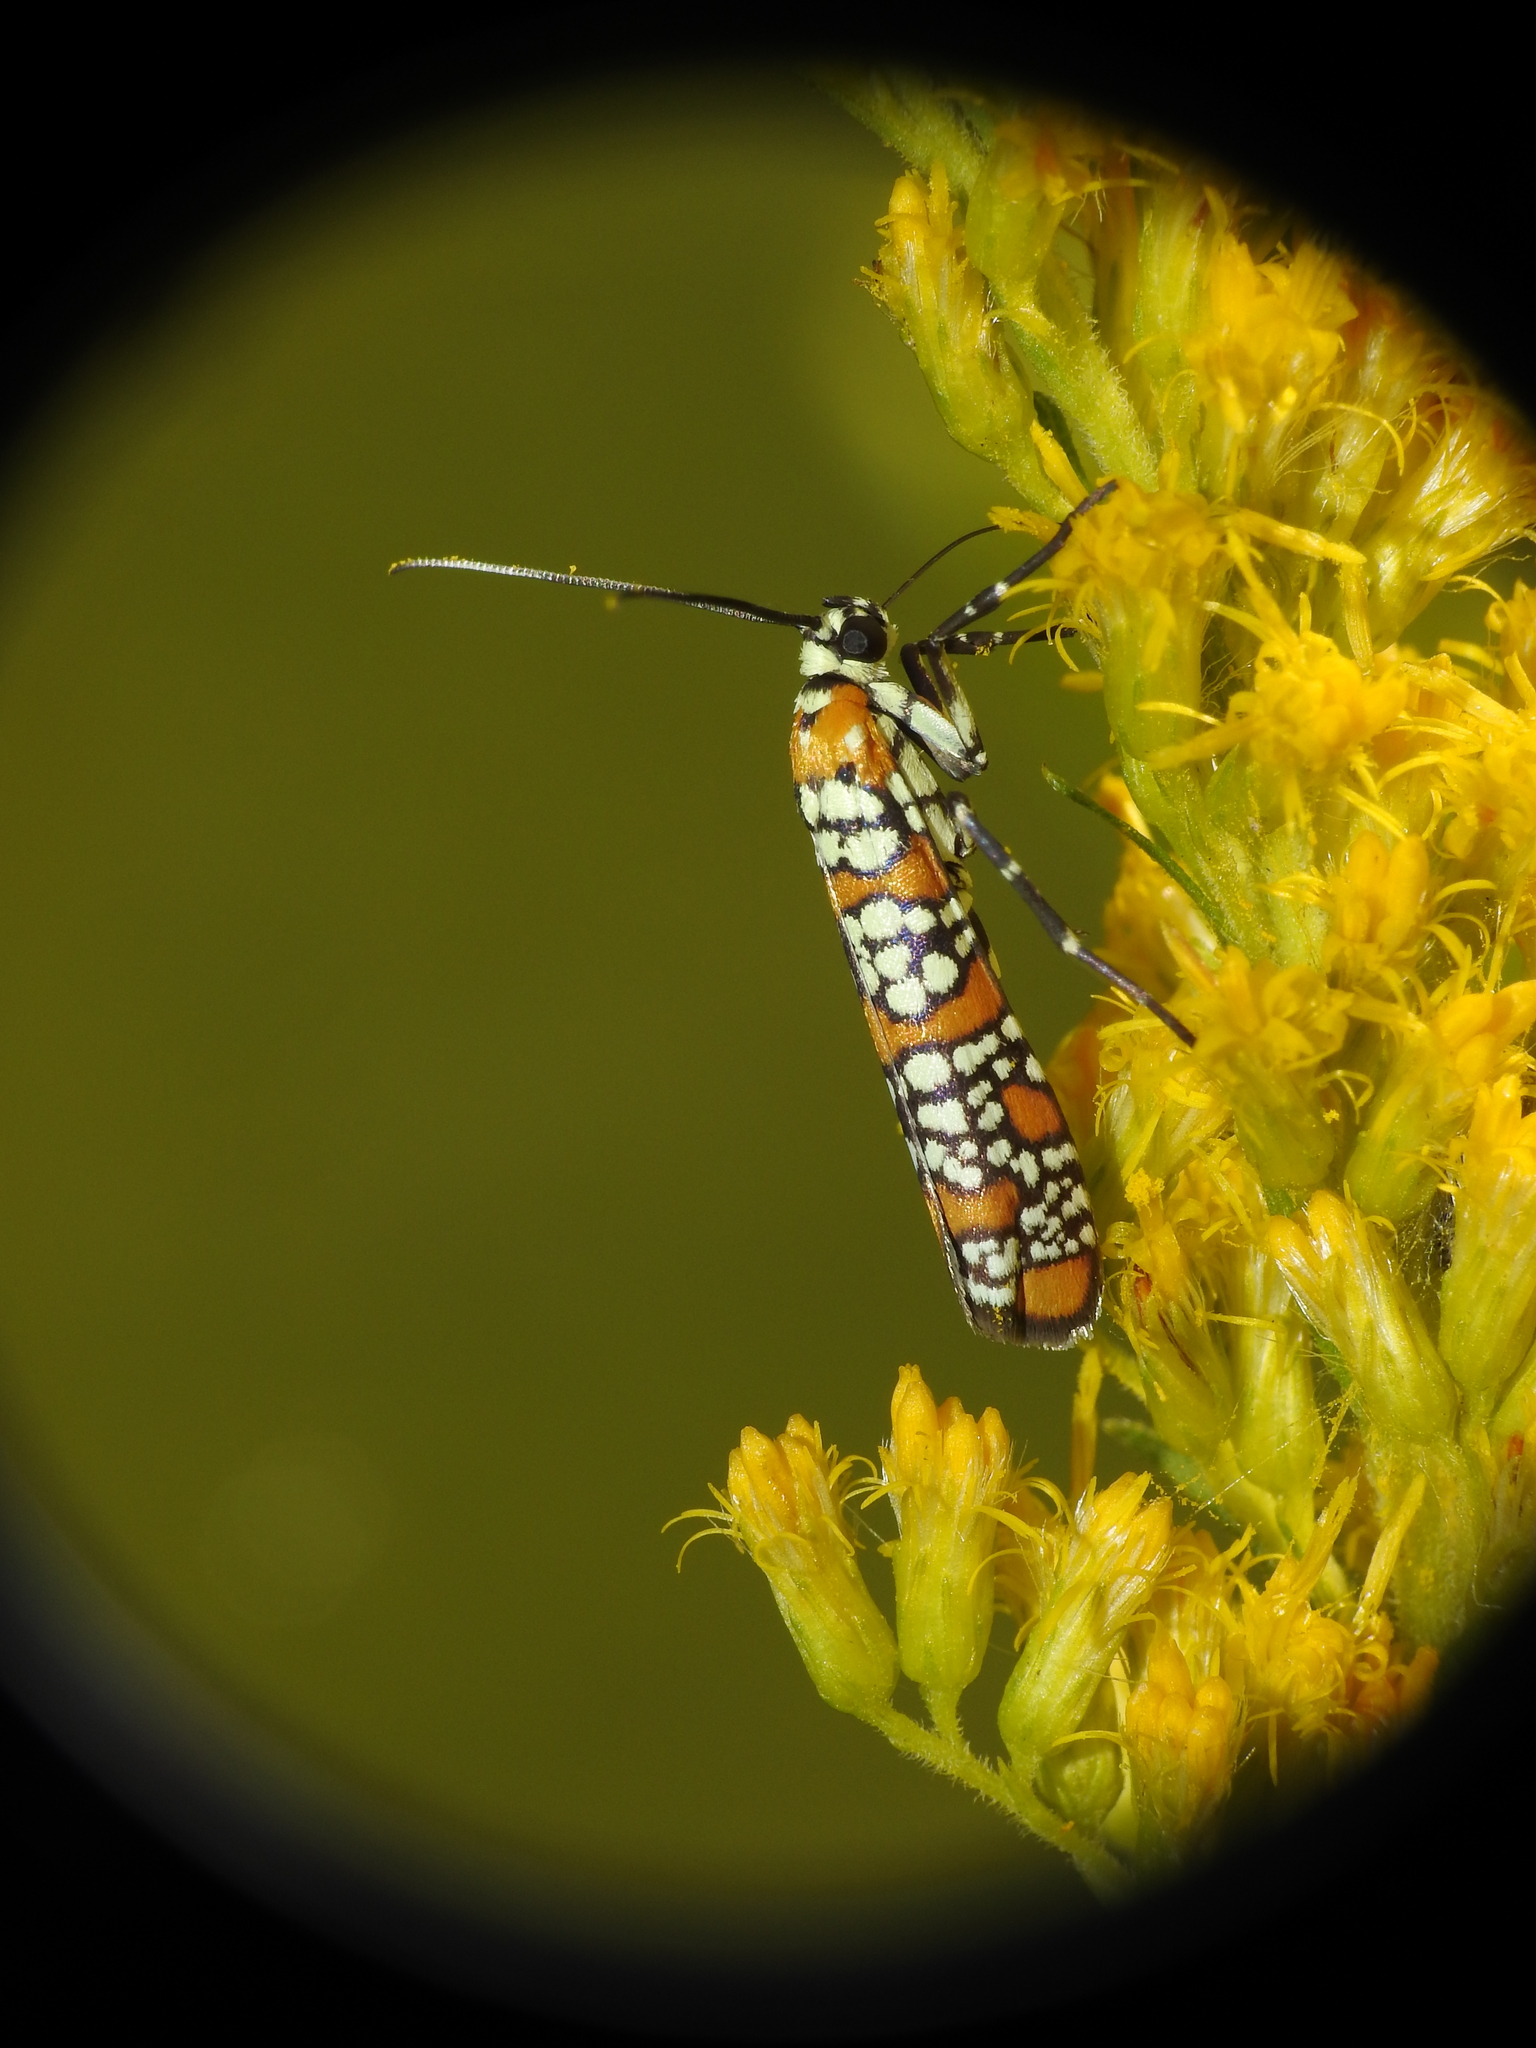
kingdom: Animalia
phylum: Arthropoda
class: Insecta
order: Lepidoptera
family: Attevidae
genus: Atteva
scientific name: Atteva punctella
